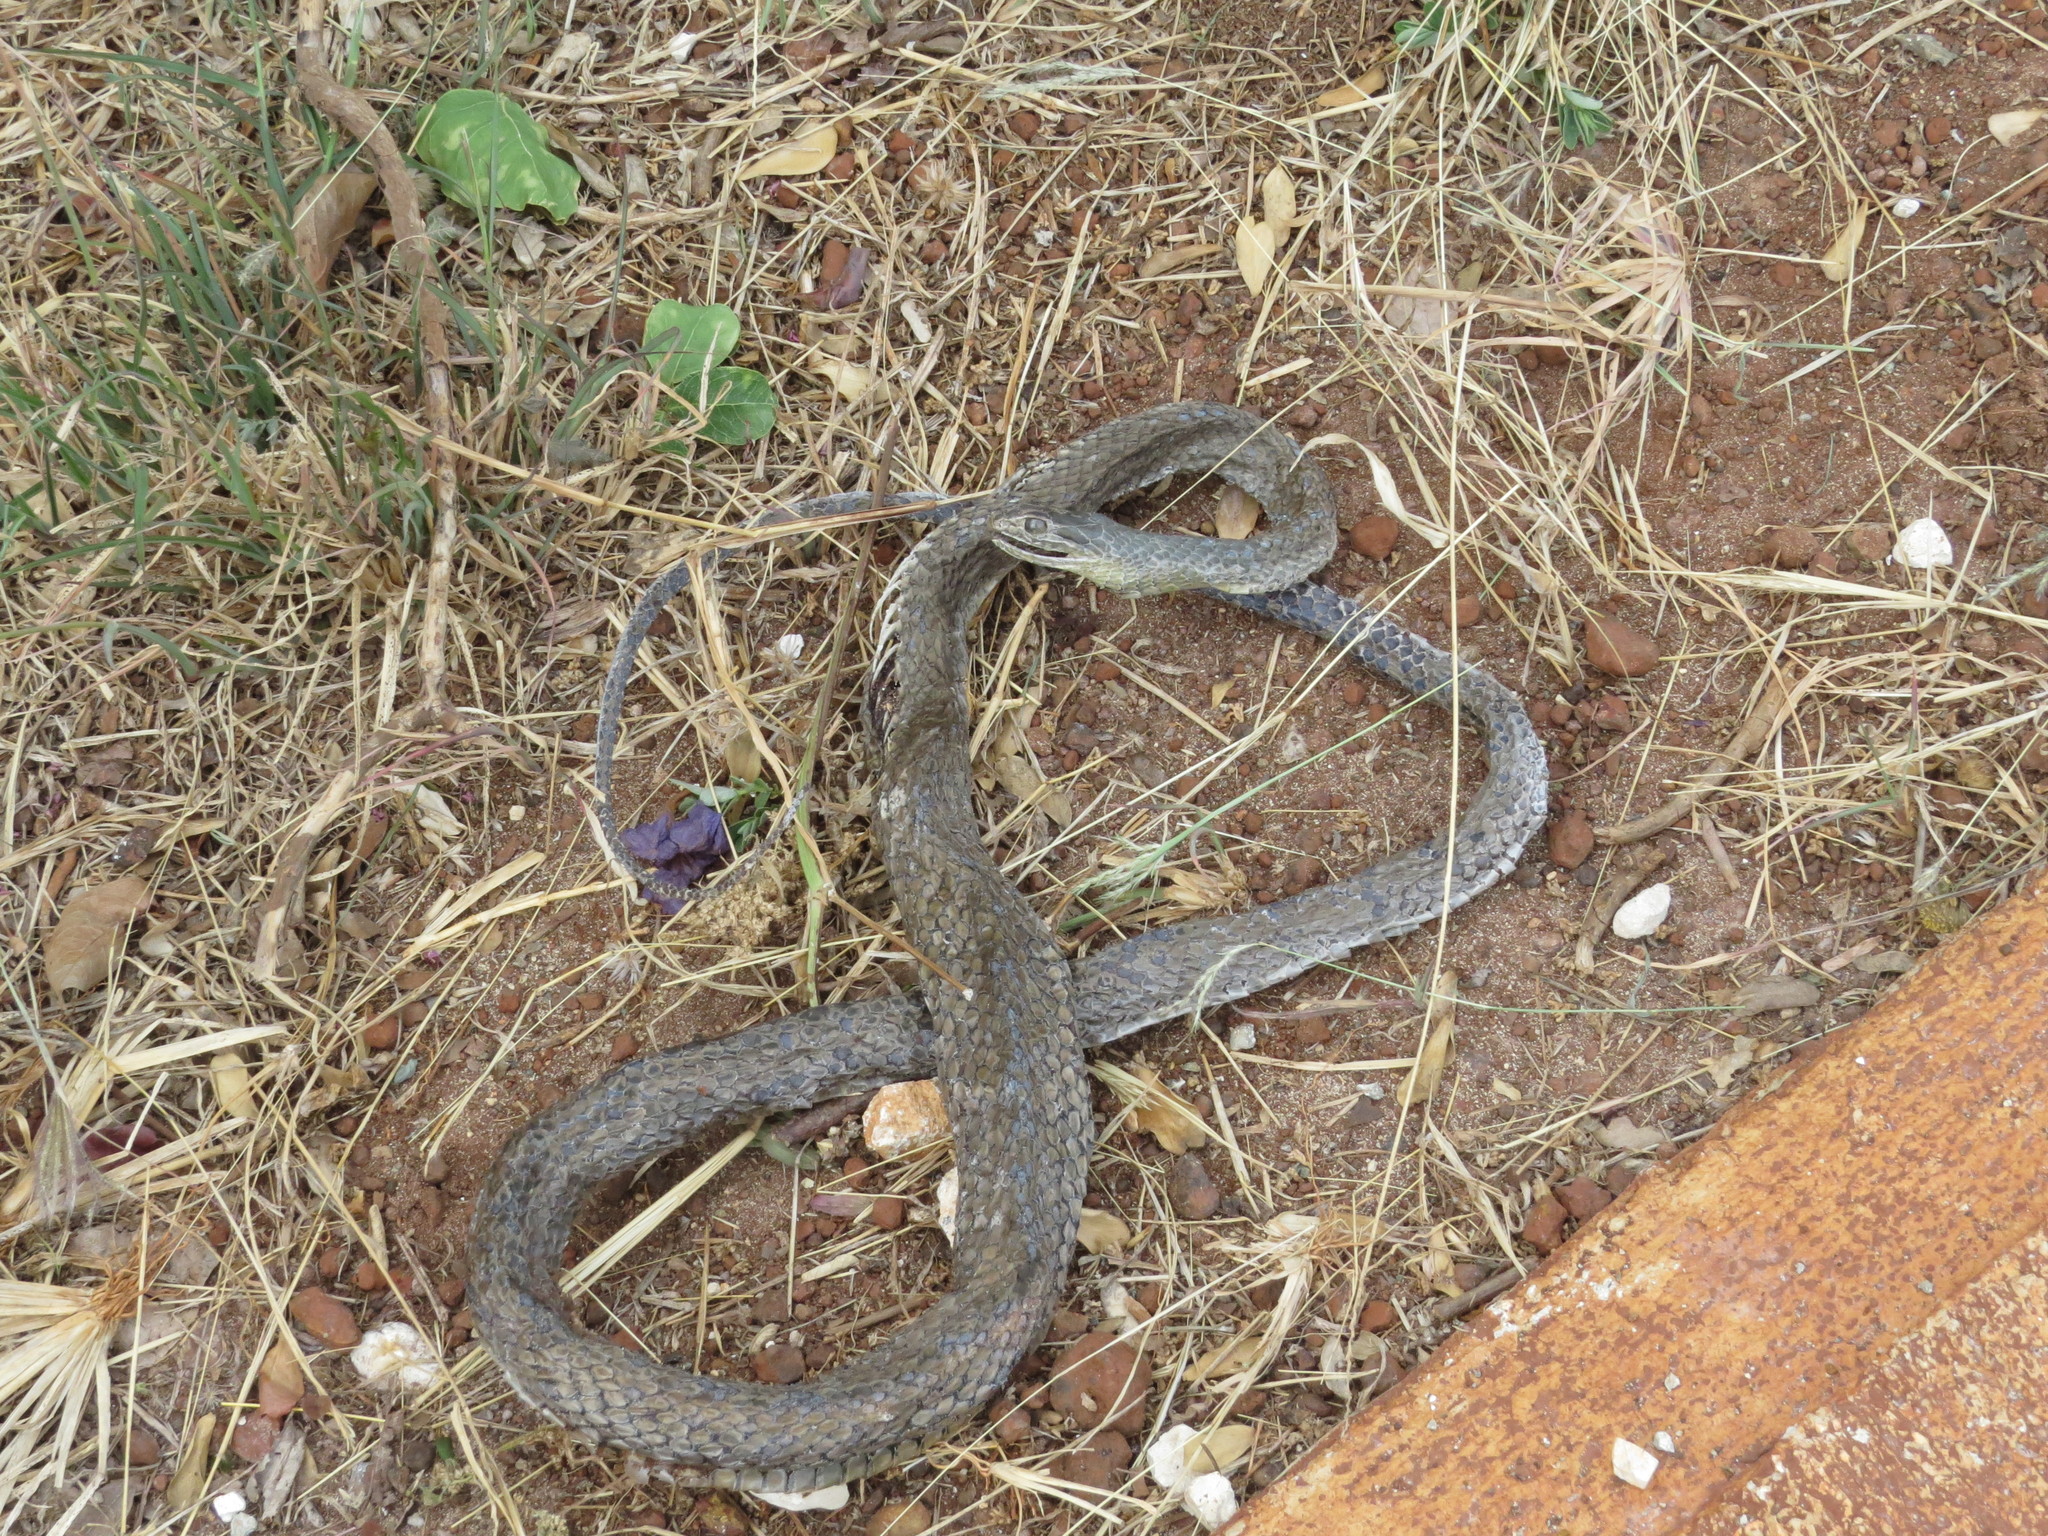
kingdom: Animalia
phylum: Chordata
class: Squamata
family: Colubridae
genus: Cubophis
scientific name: Cubophis cantherigerus
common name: Cuban racer
